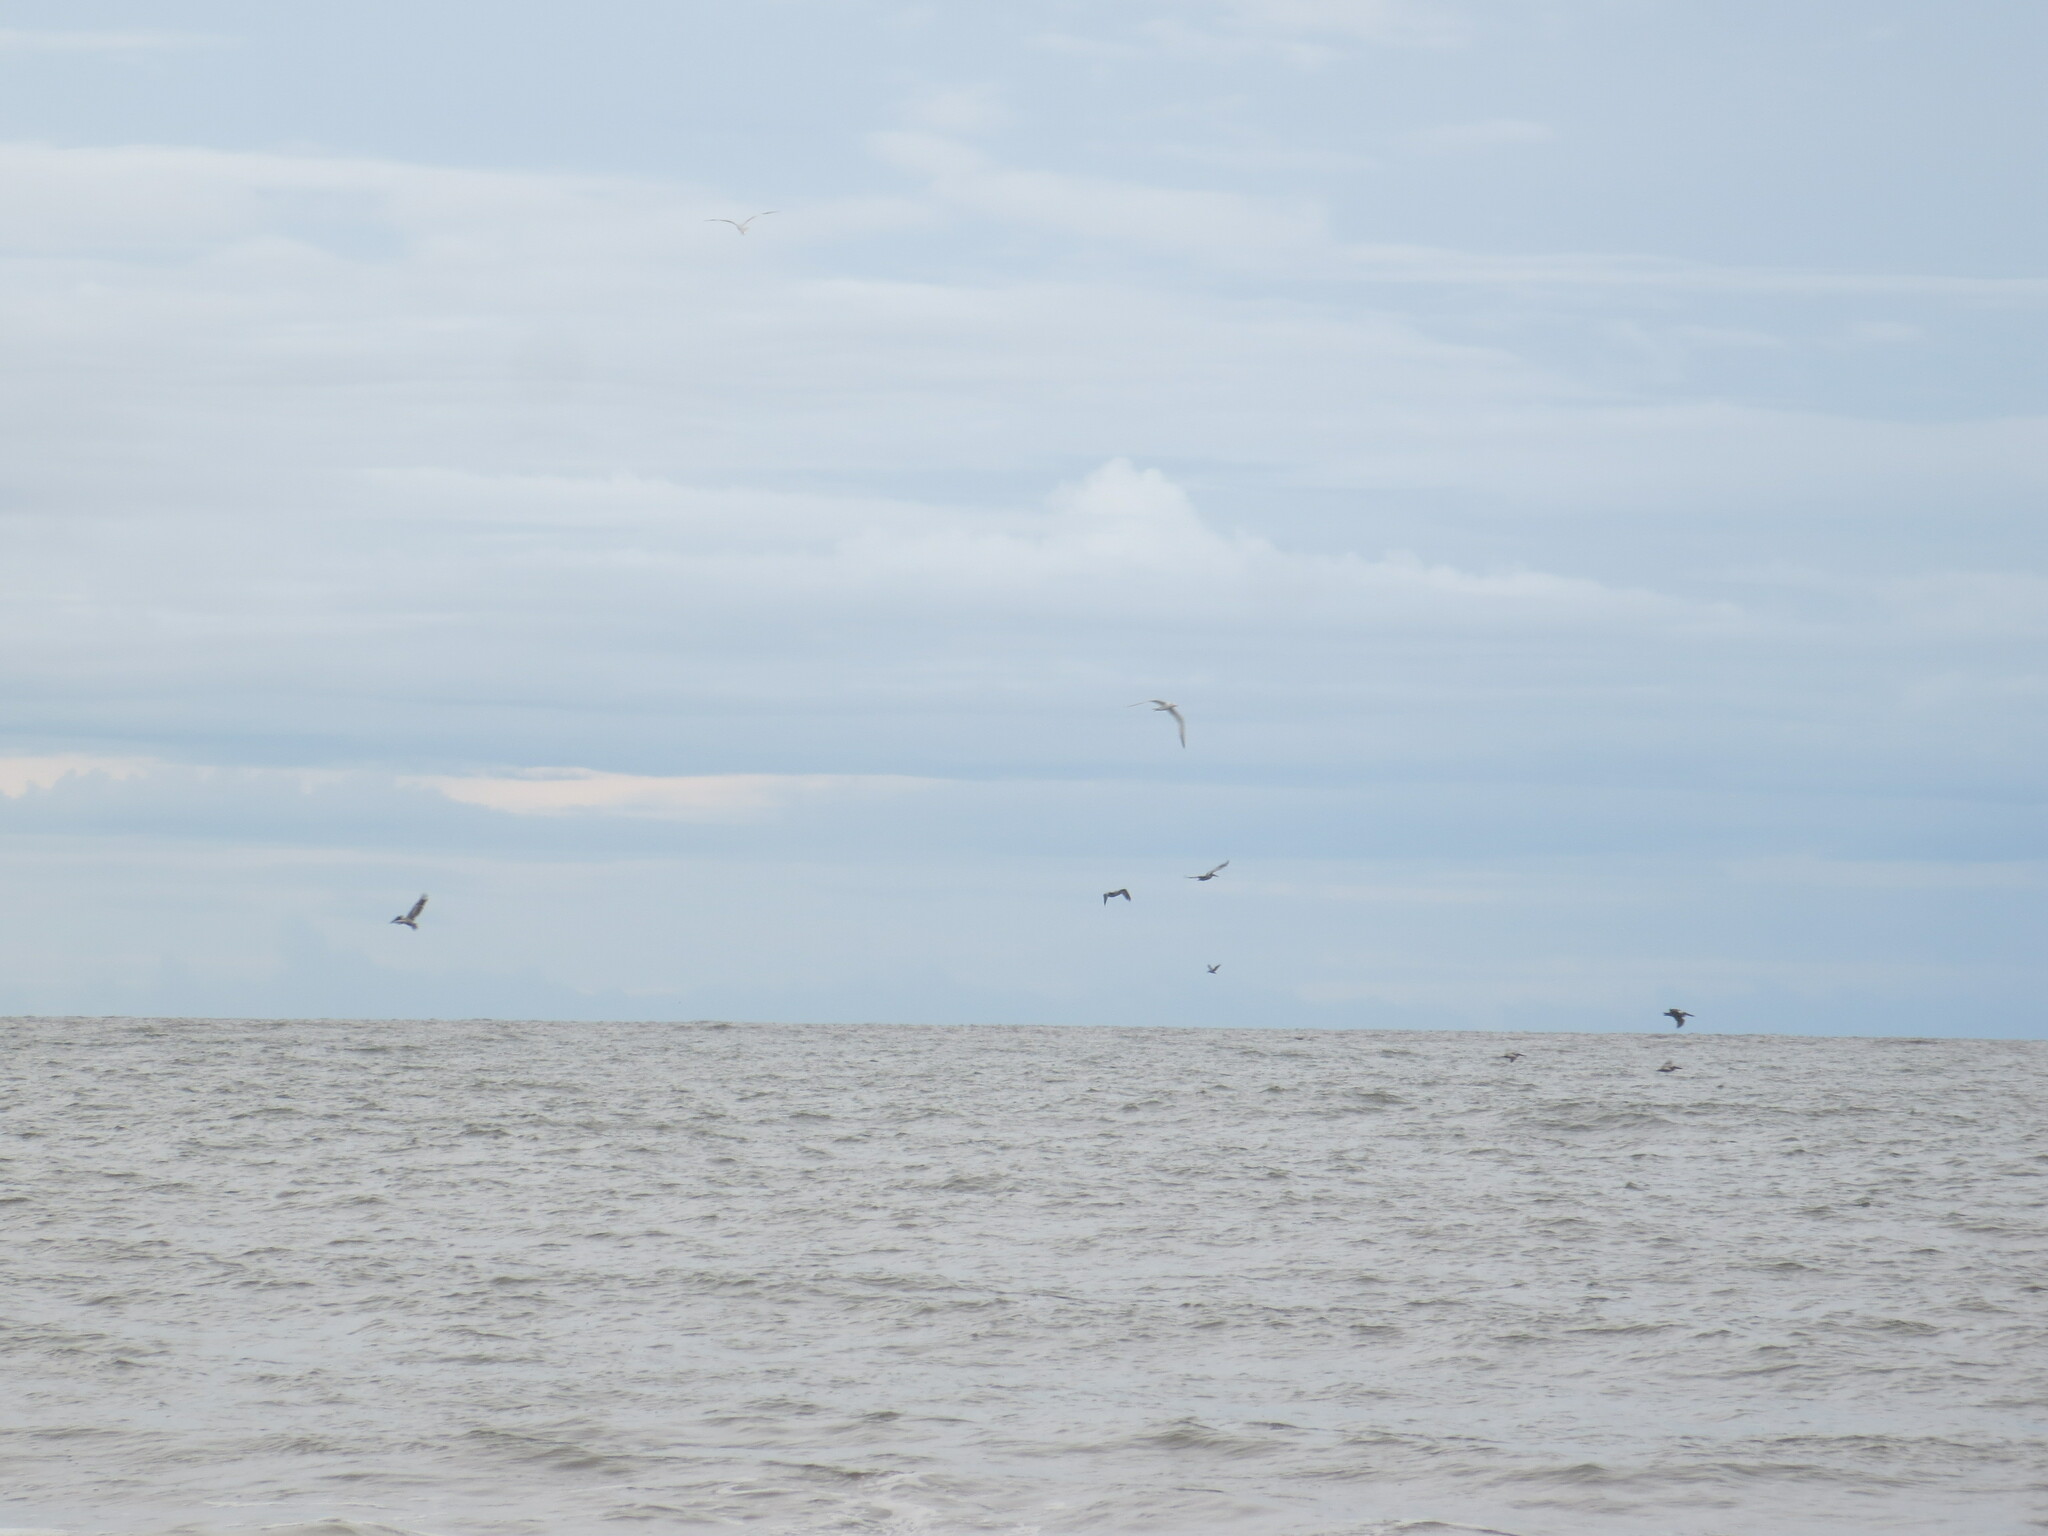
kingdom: Animalia
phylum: Chordata
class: Aves
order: Pelecaniformes
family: Pelecanidae
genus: Pelecanus
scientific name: Pelecanus occidentalis
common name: Brown pelican
